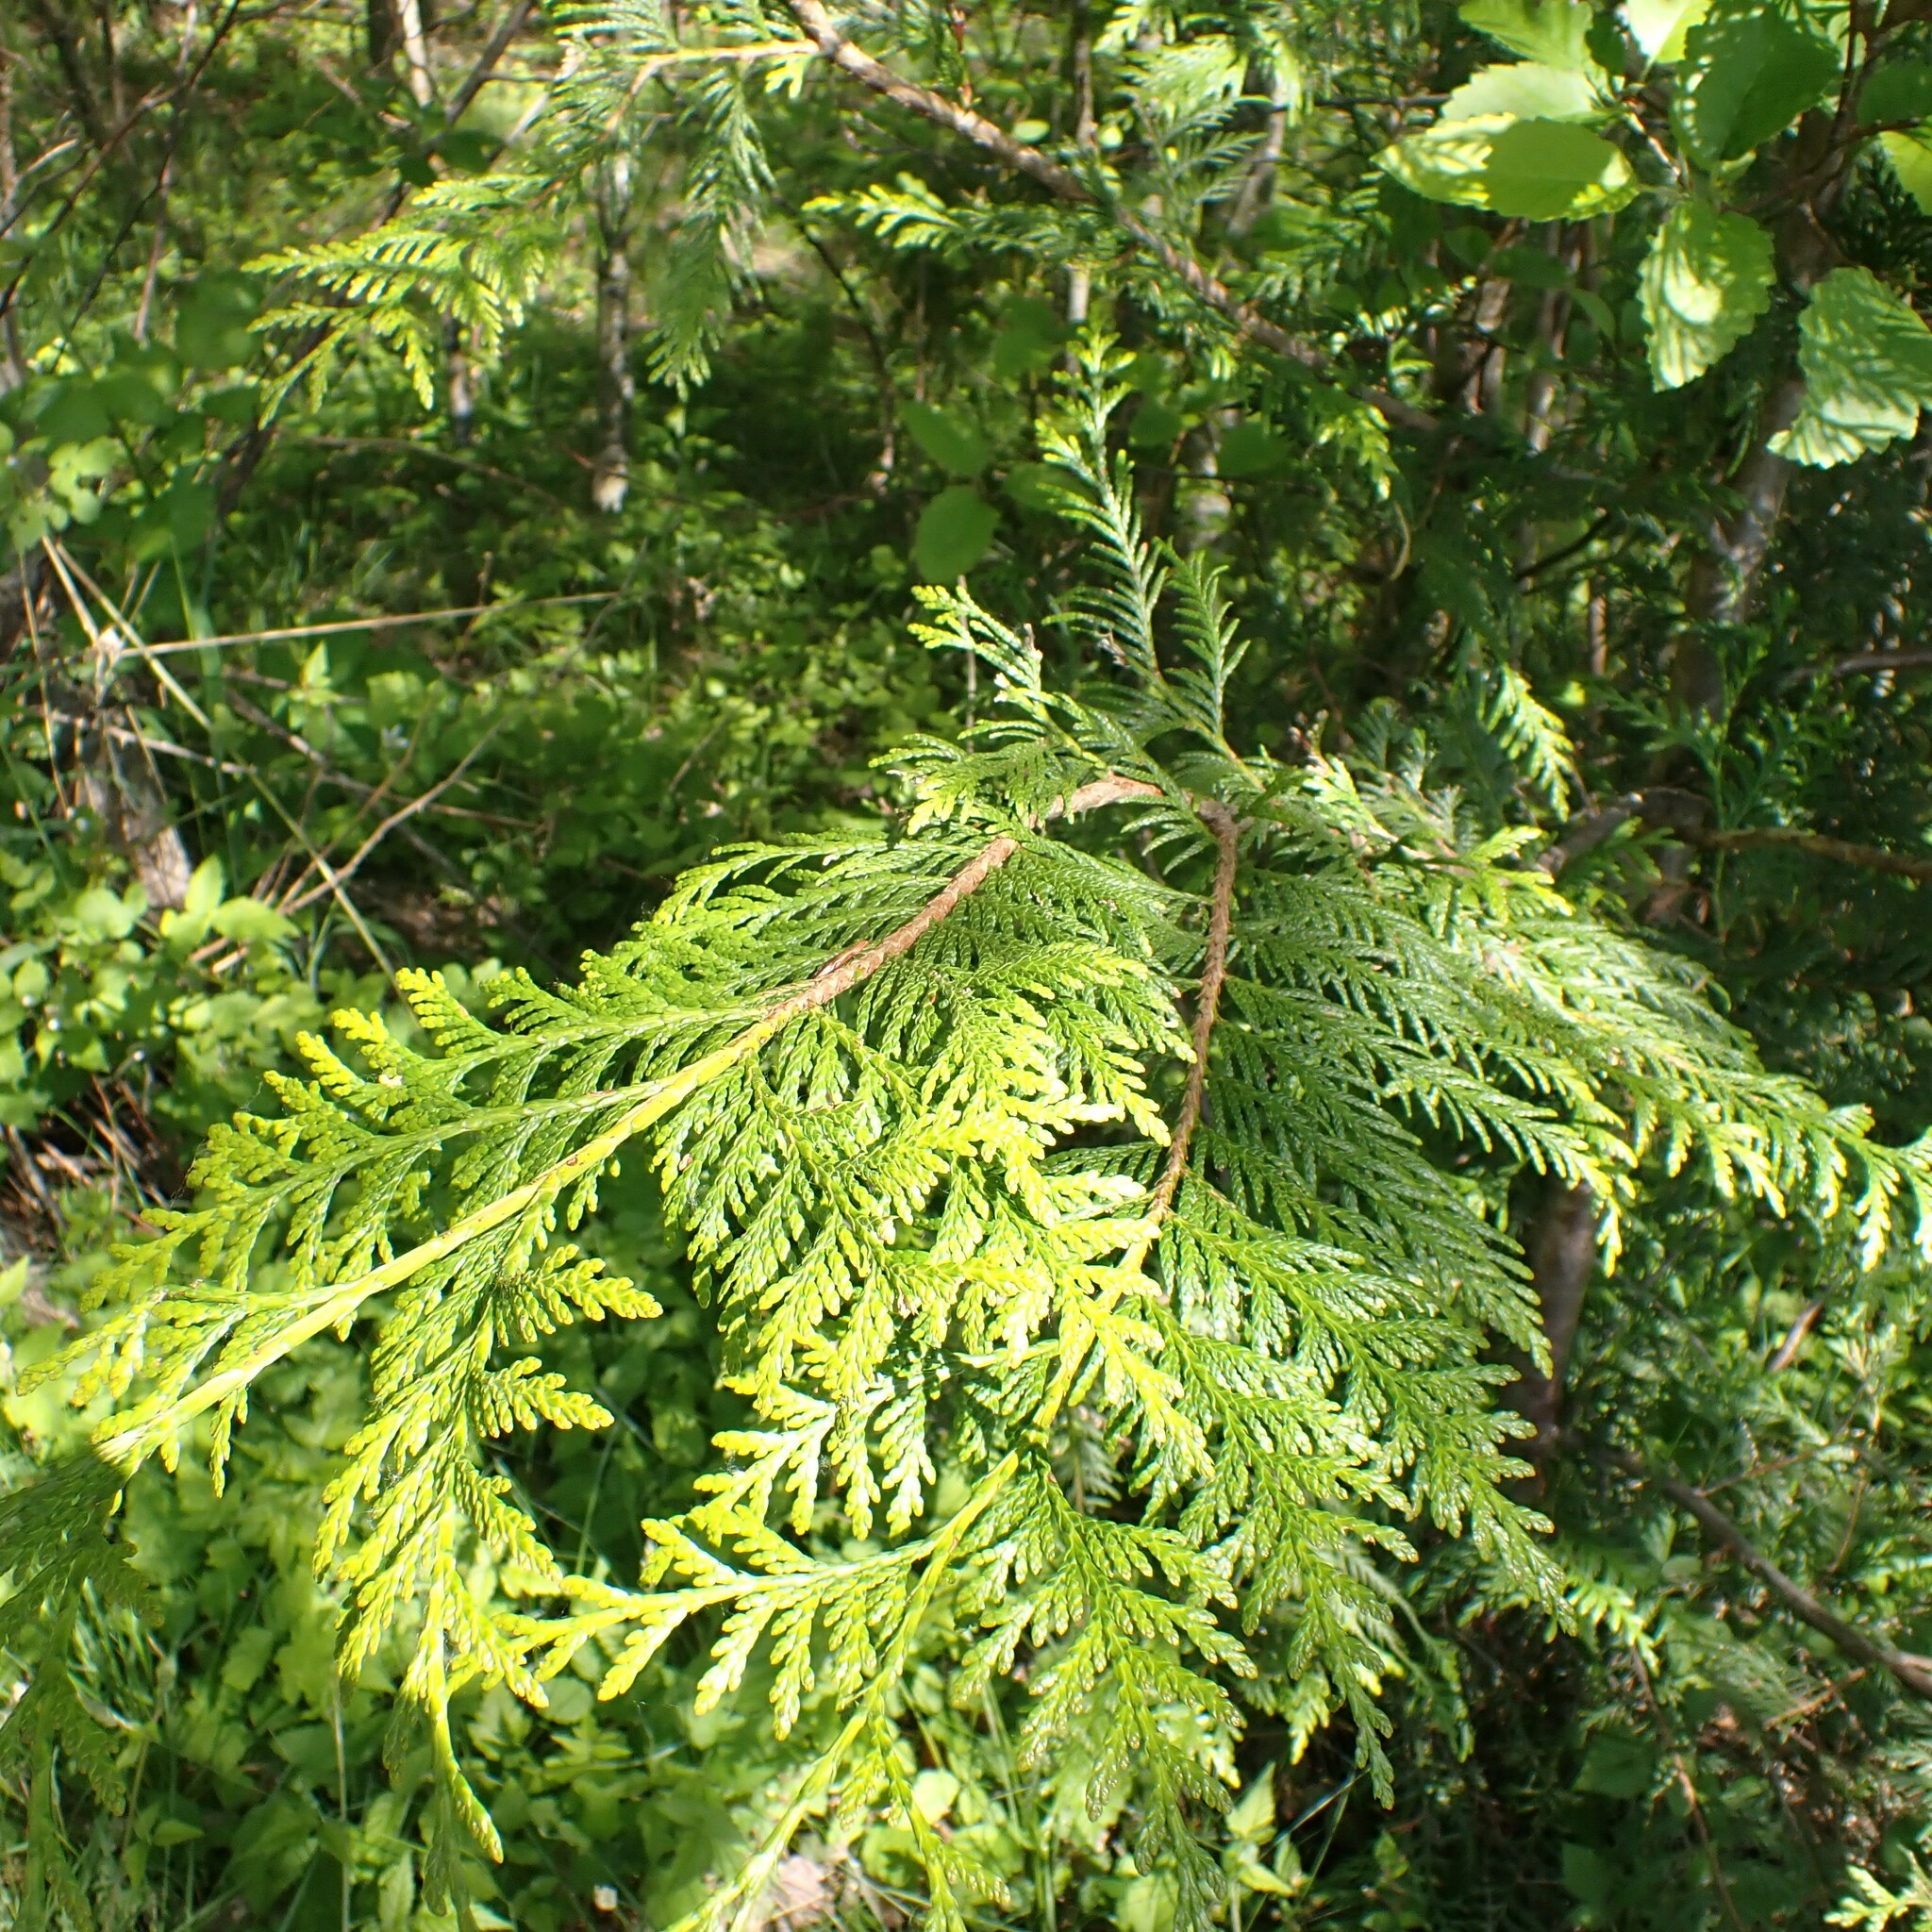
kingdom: Plantae
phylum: Tracheophyta
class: Pinopsida
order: Pinales
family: Cupressaceae
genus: Thuja
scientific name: Thuja plicata
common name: Western red-cedar
